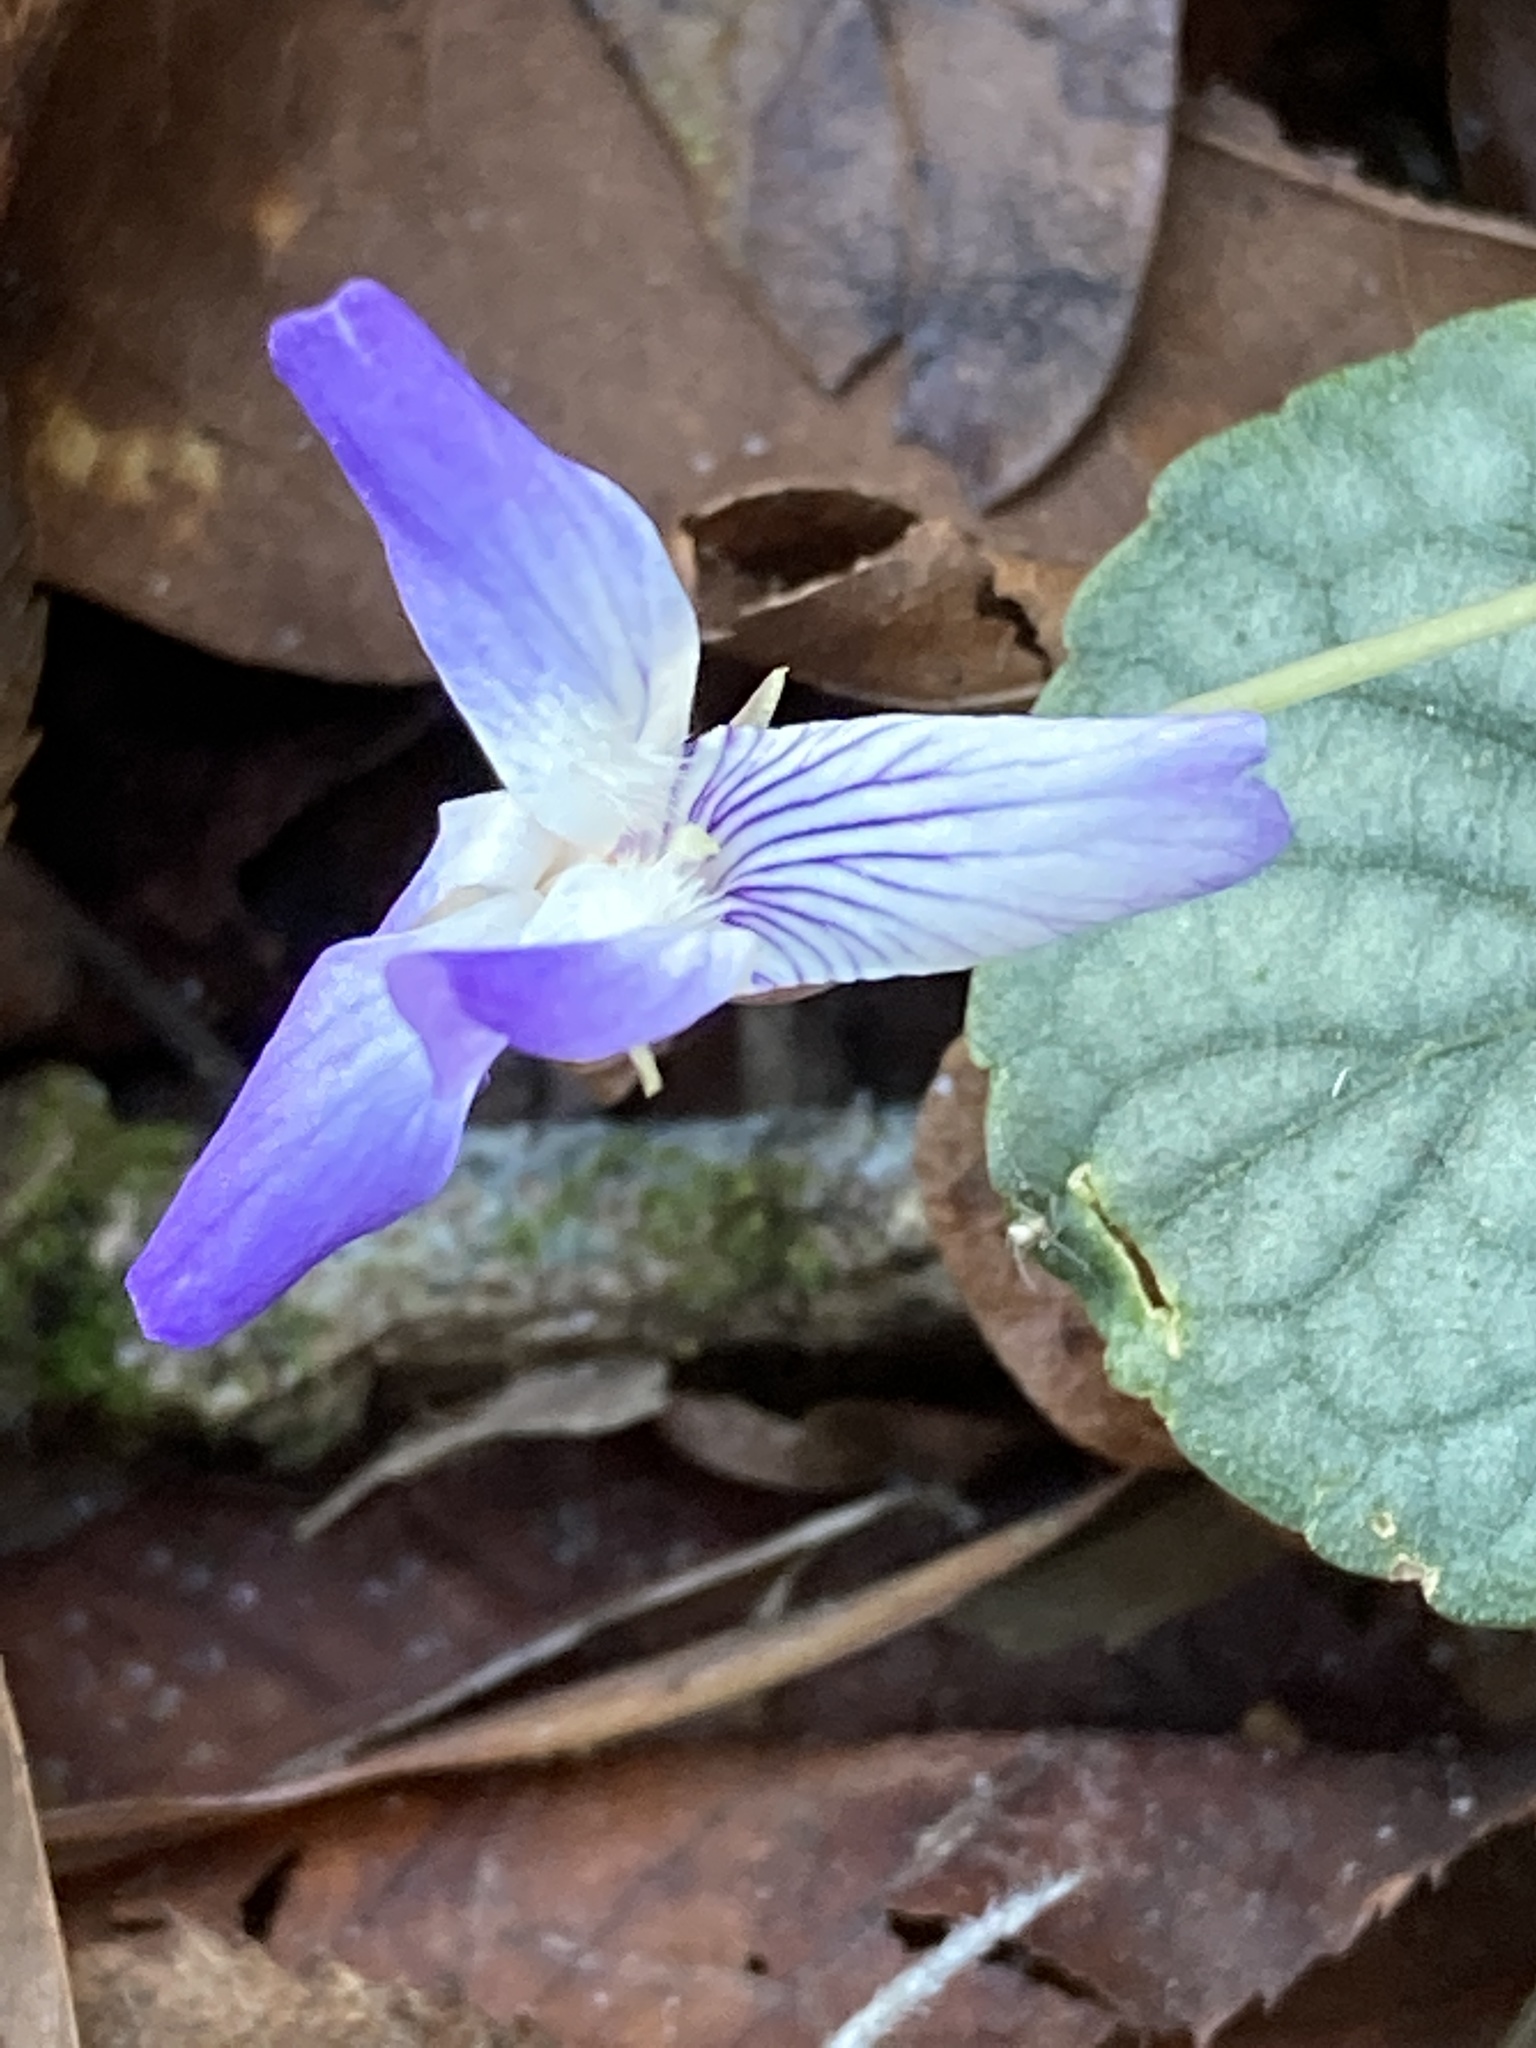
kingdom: Plantae
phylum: Tracheophyta
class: Magnoliopsida
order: Malpighiales
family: Violaceae
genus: Viola
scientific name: Viola walteri
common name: Prostrate southern violet
